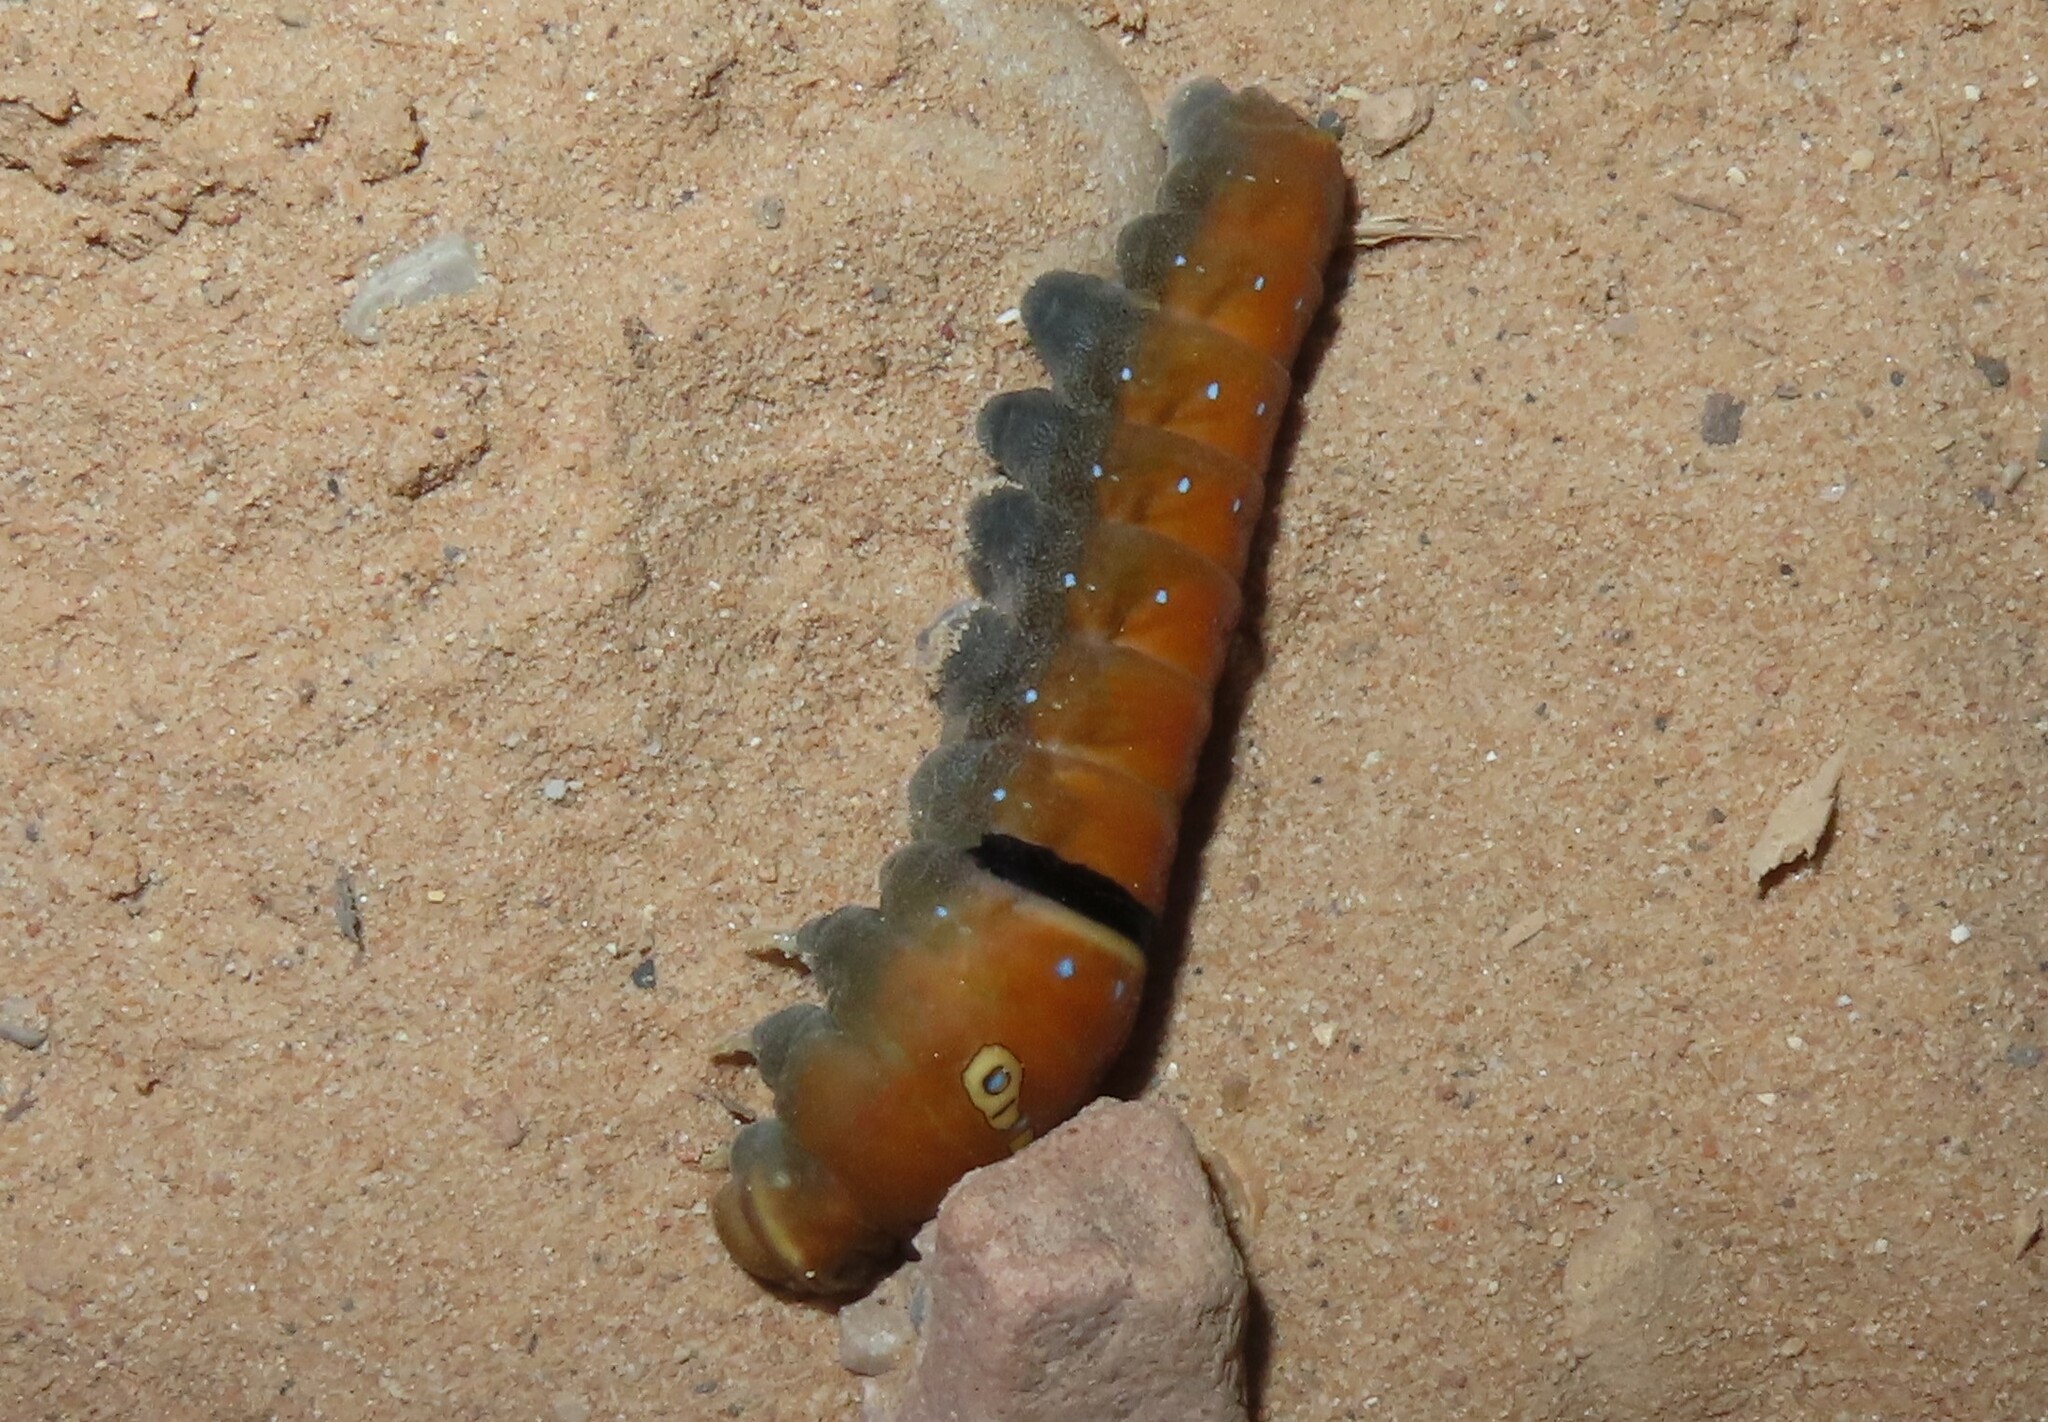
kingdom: Animalia
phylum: Arthropoda
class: Insecta
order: Lepidoptera
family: Papilionidae
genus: Papilio
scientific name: Papilio multicaudata
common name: Two-tailed tiger swallowtail
